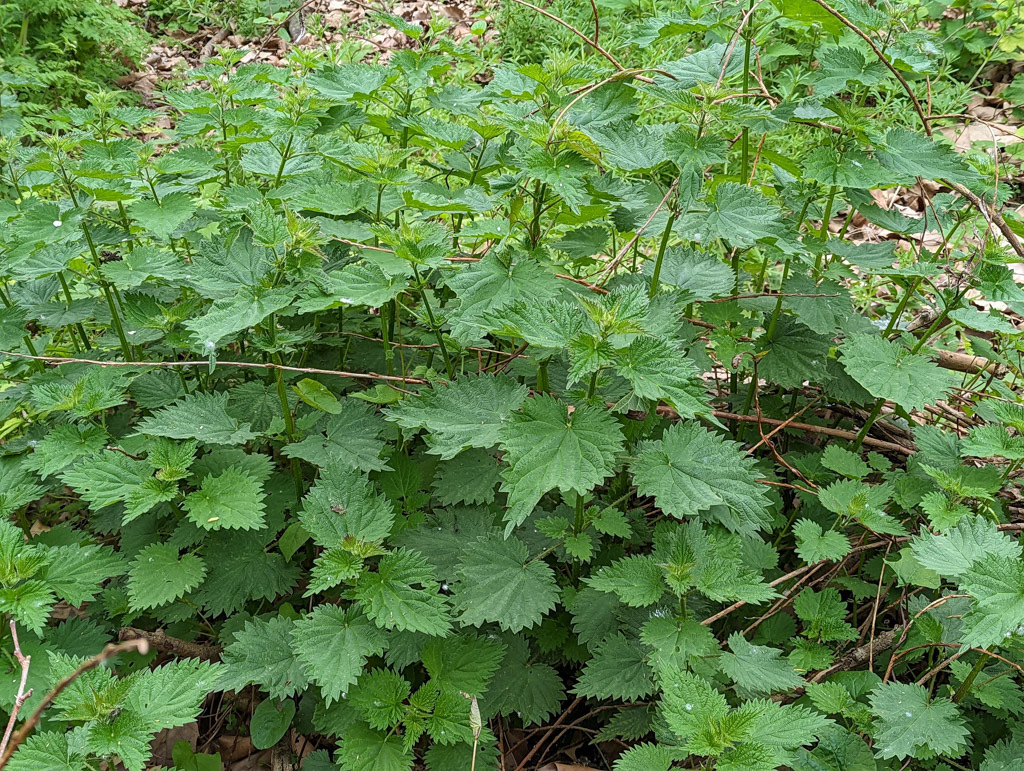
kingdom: Plantae
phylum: Tracheophyta
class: Magnoliopsida
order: Rosales
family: Urticaceae
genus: Urtica
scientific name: Urtica dioica
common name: Common nettle
